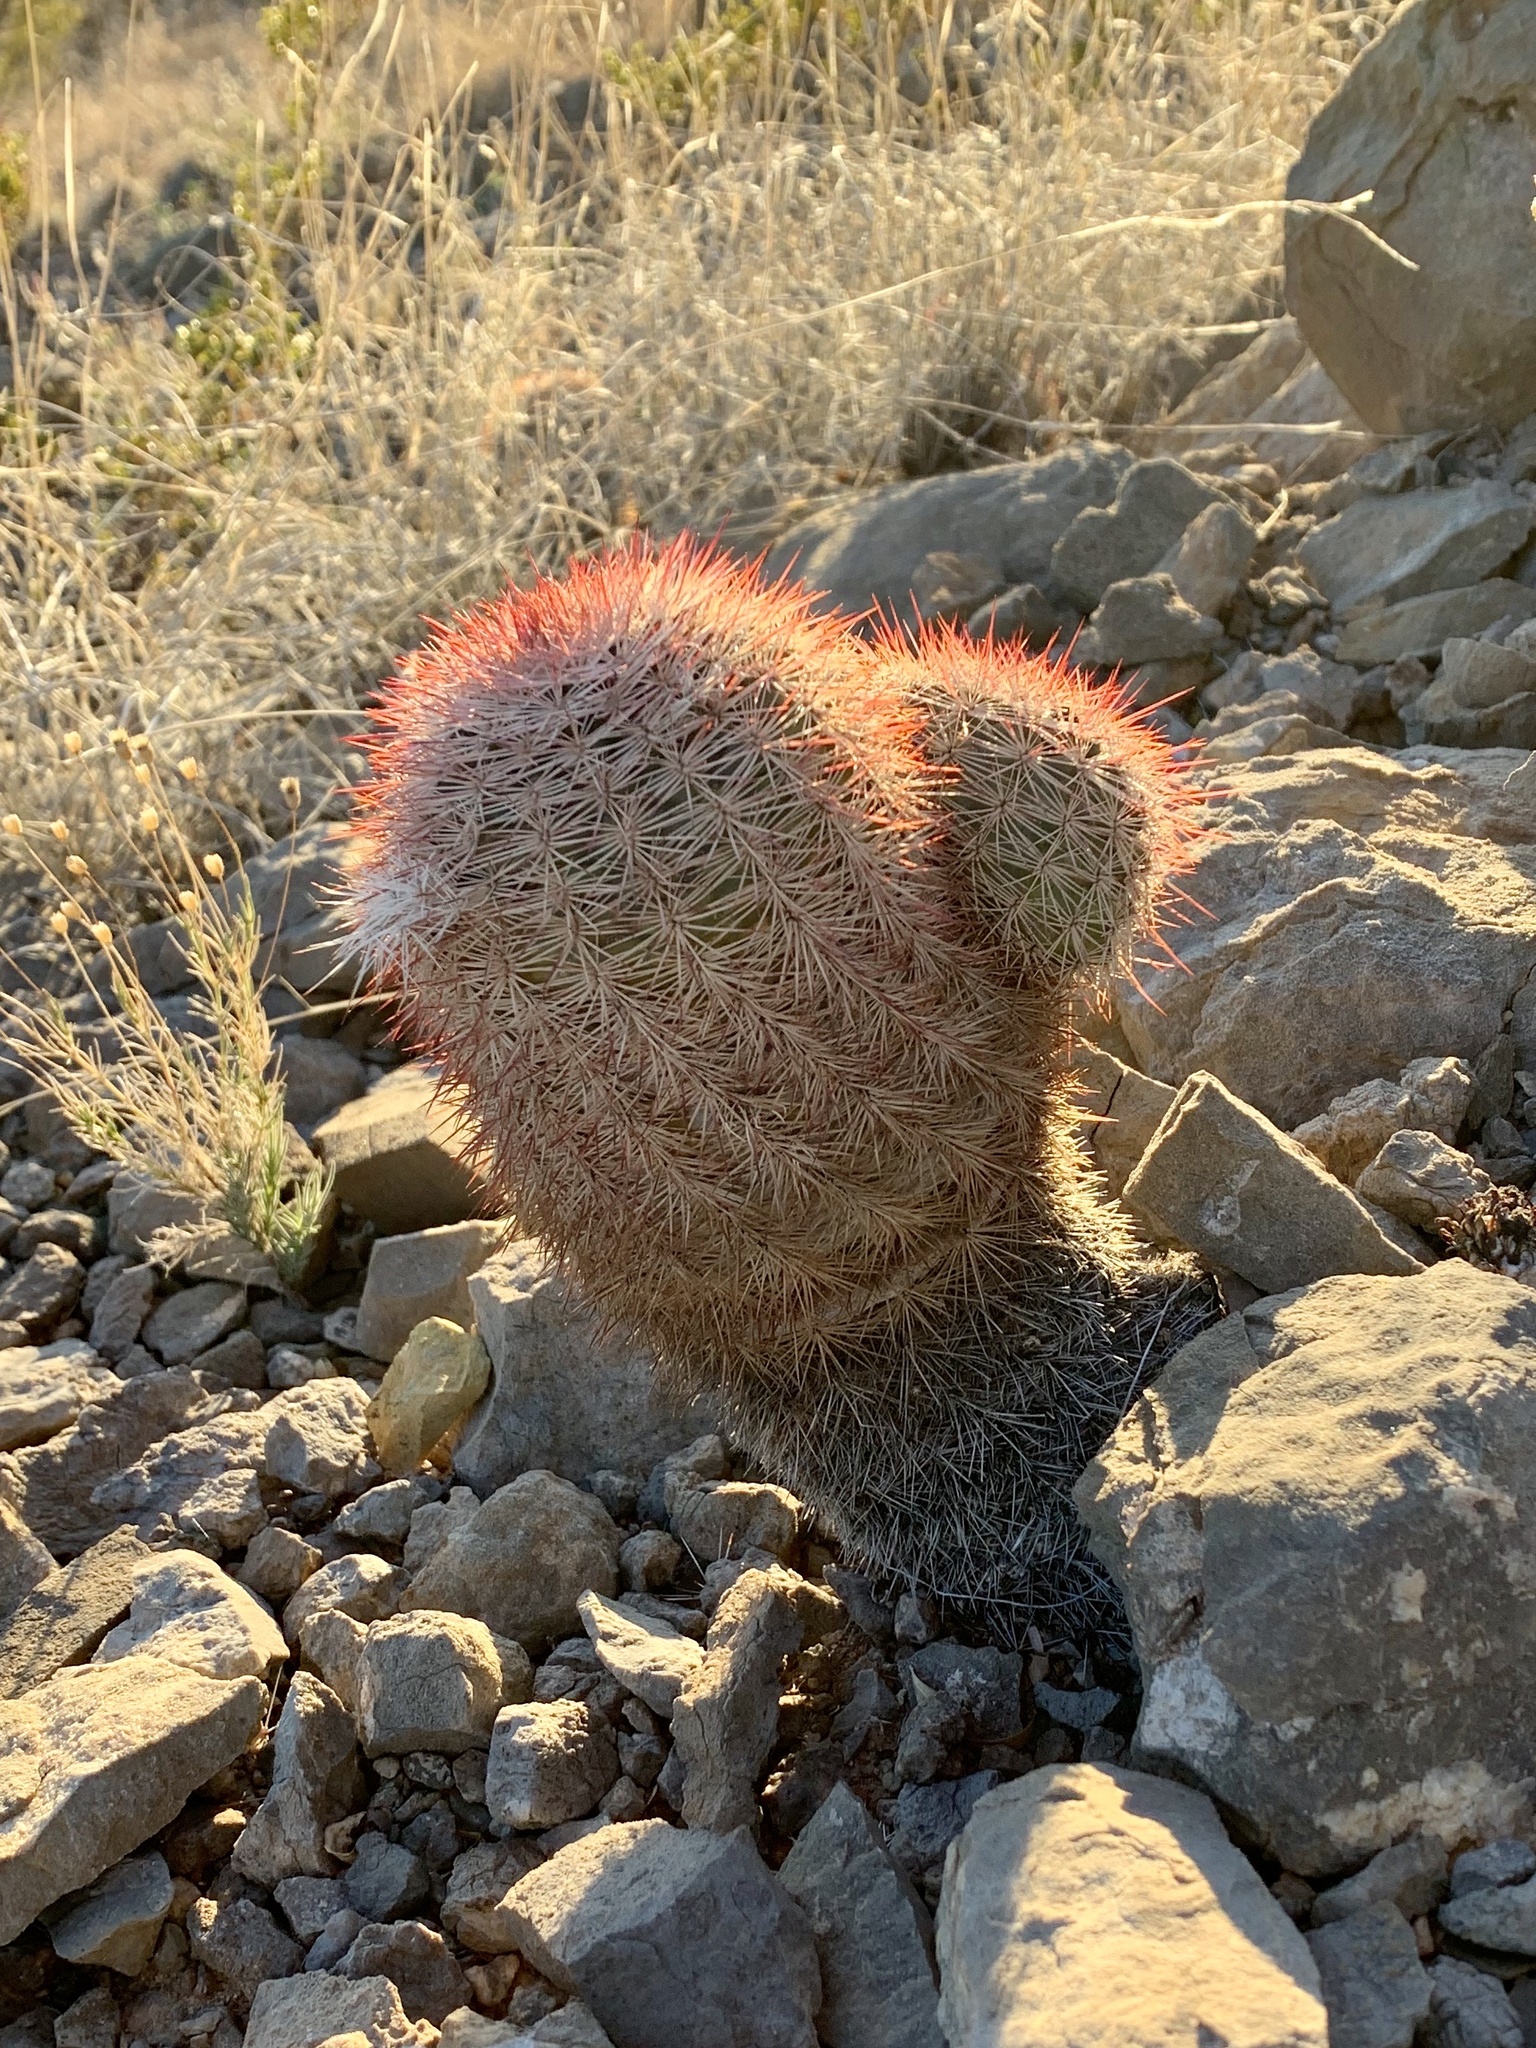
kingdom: Plantae
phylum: Tracheophyta
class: Magnoliopsida
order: Caryophyllales
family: Cactaceae
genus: Echinocereus
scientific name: Echinocereus dasyacanthus
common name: Spiny hedgehog cactus
